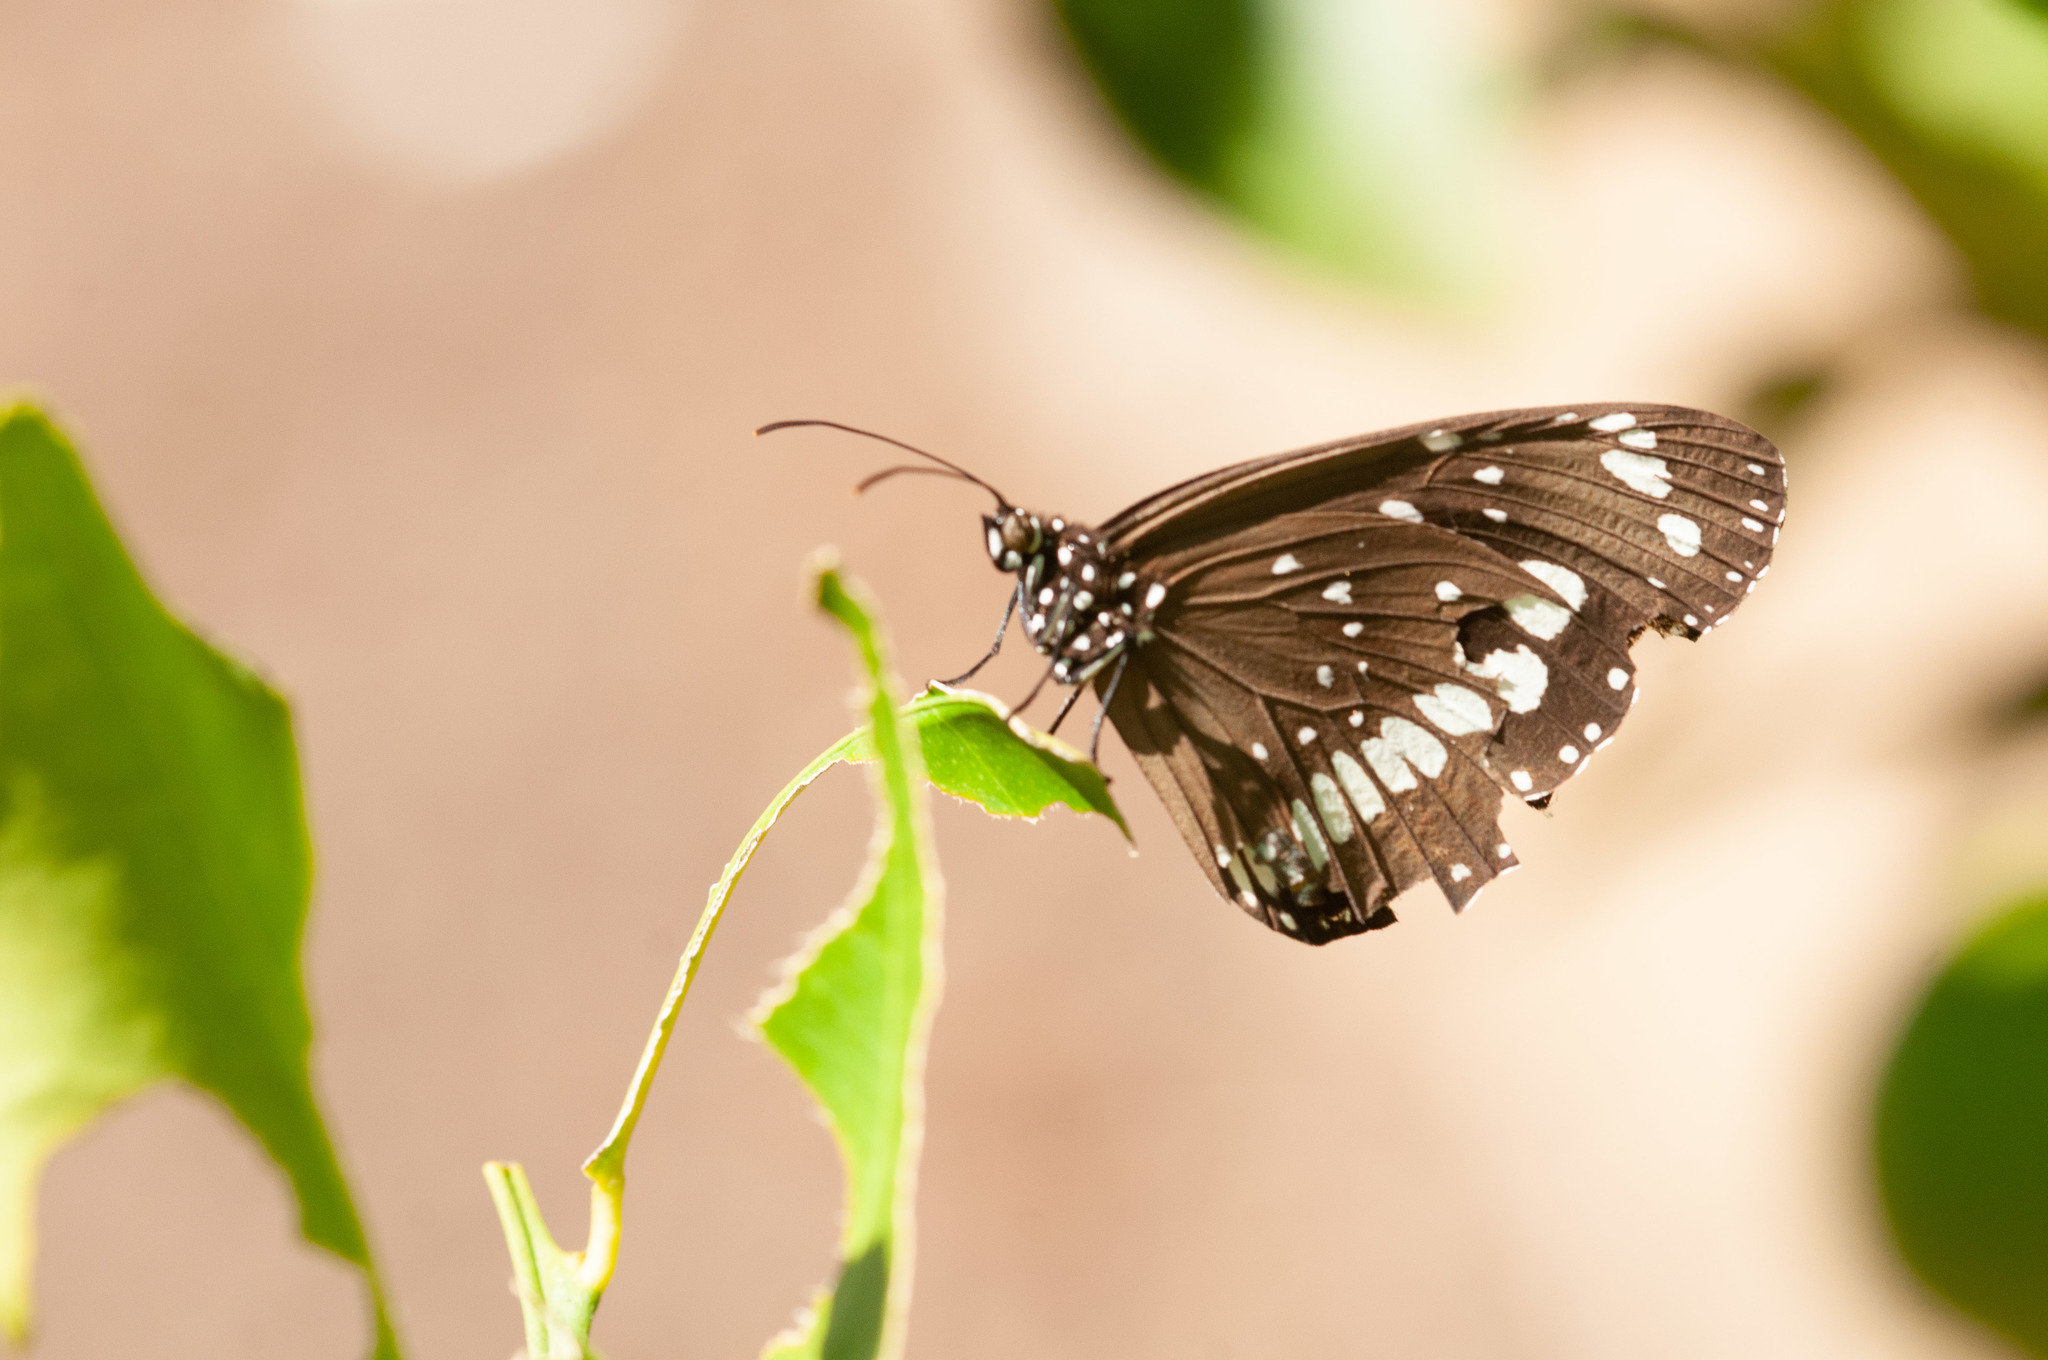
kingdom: Animalia
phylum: Arthropoda
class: Insecta
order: Lepidoptera
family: Nymphalidae
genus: Euploea
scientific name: Euploea core
